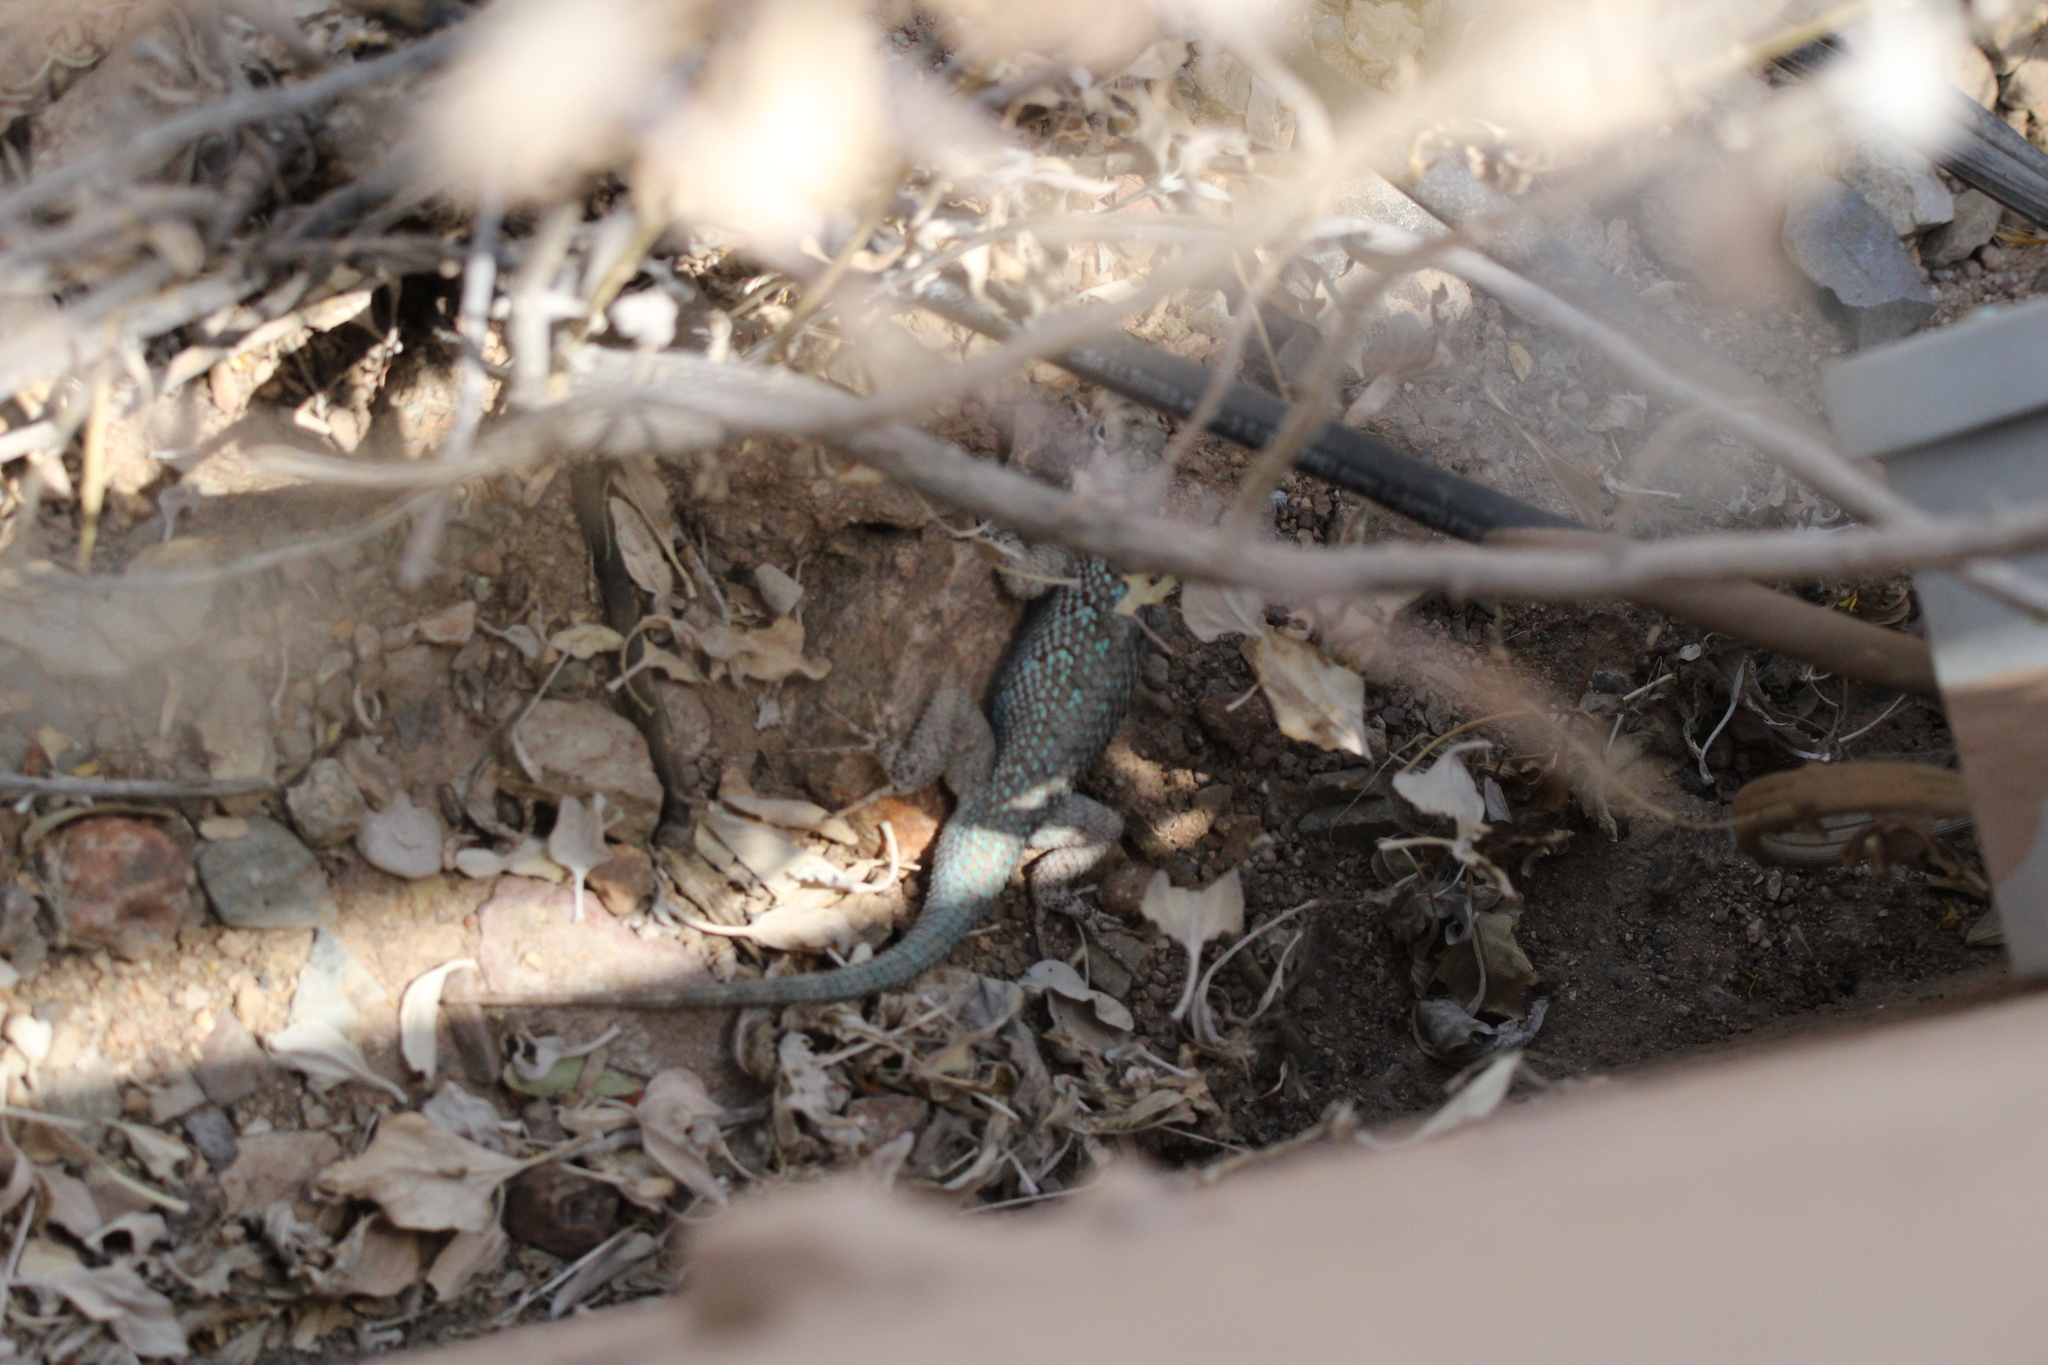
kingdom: Animalia
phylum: Chordata
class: Squamata
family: Phrynosomatidae
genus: Sceloporus
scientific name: Sceloporus clarkii
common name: Clark's spiny lizard
